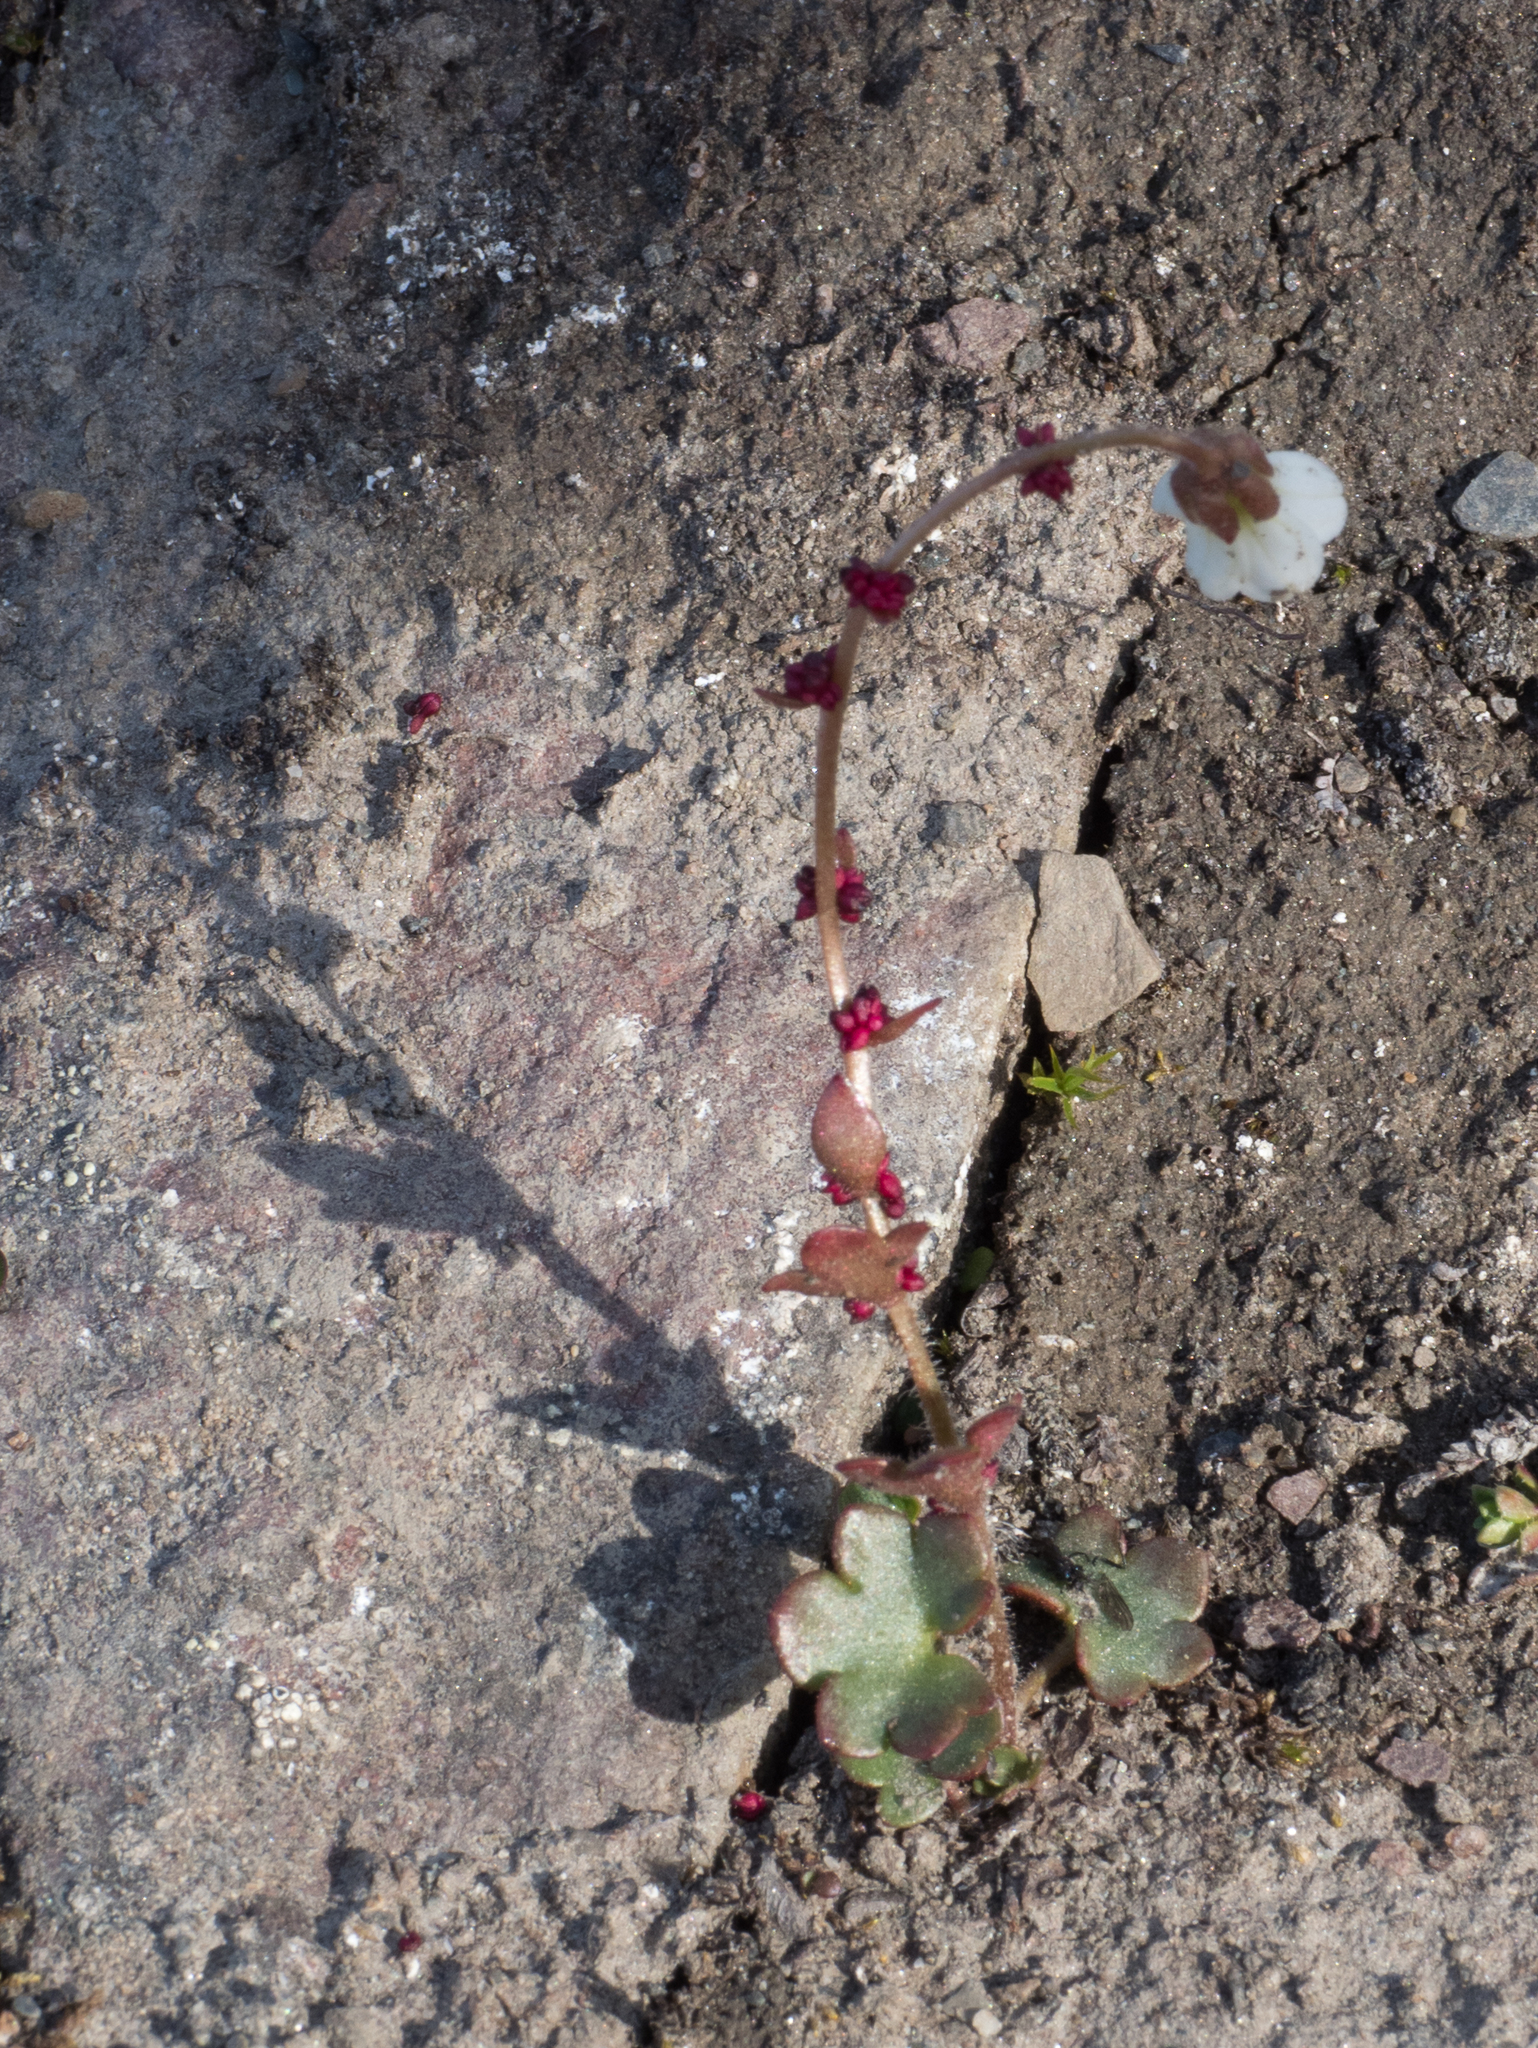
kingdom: Plantae
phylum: Tracheophyta
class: Magnoliopsida
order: Saxifragales
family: Saxifragaceae
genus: Saxifraga
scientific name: Saxifraga cernua
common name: Drooping saxifrage
